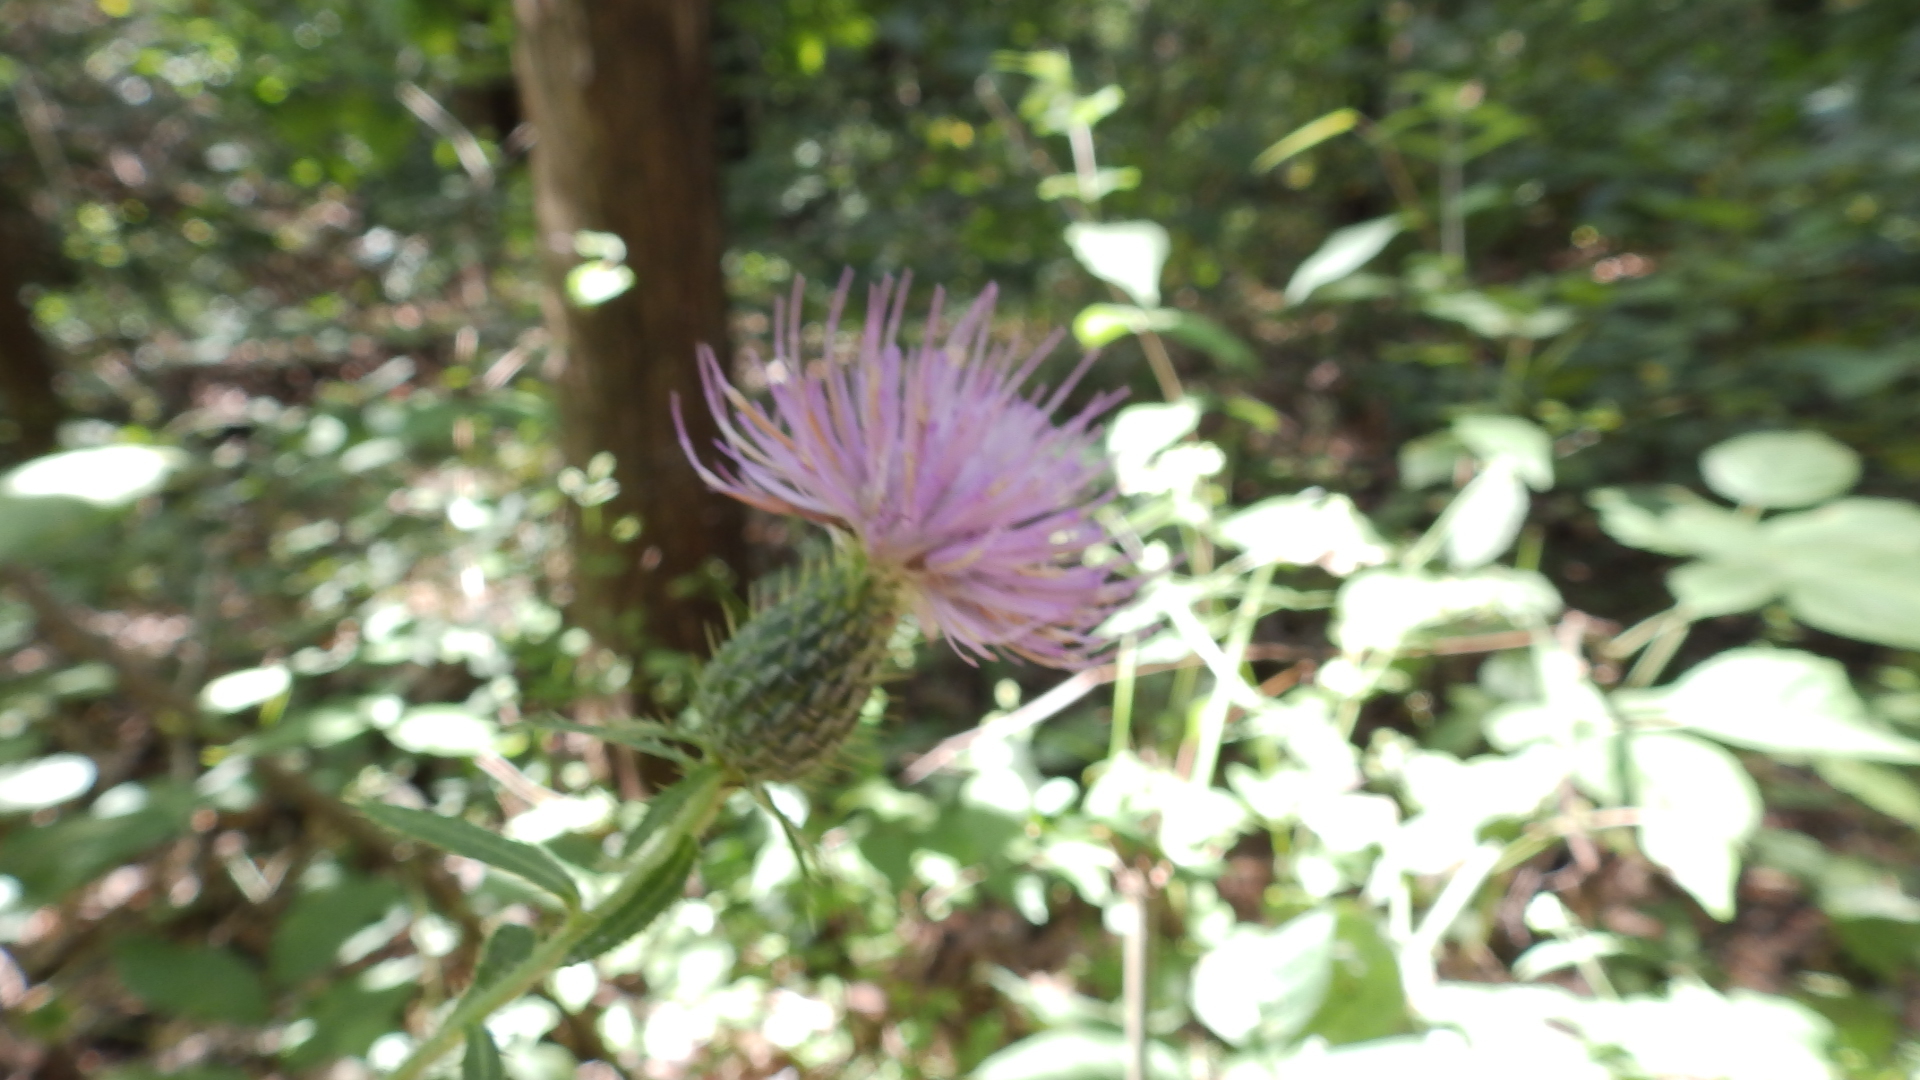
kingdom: Plantae
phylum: Tracheophyta
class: Magnoliopsida
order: Asterales
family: Asteraceae
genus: Cirsium
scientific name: Cirsium altissimum
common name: Roadside thistle
